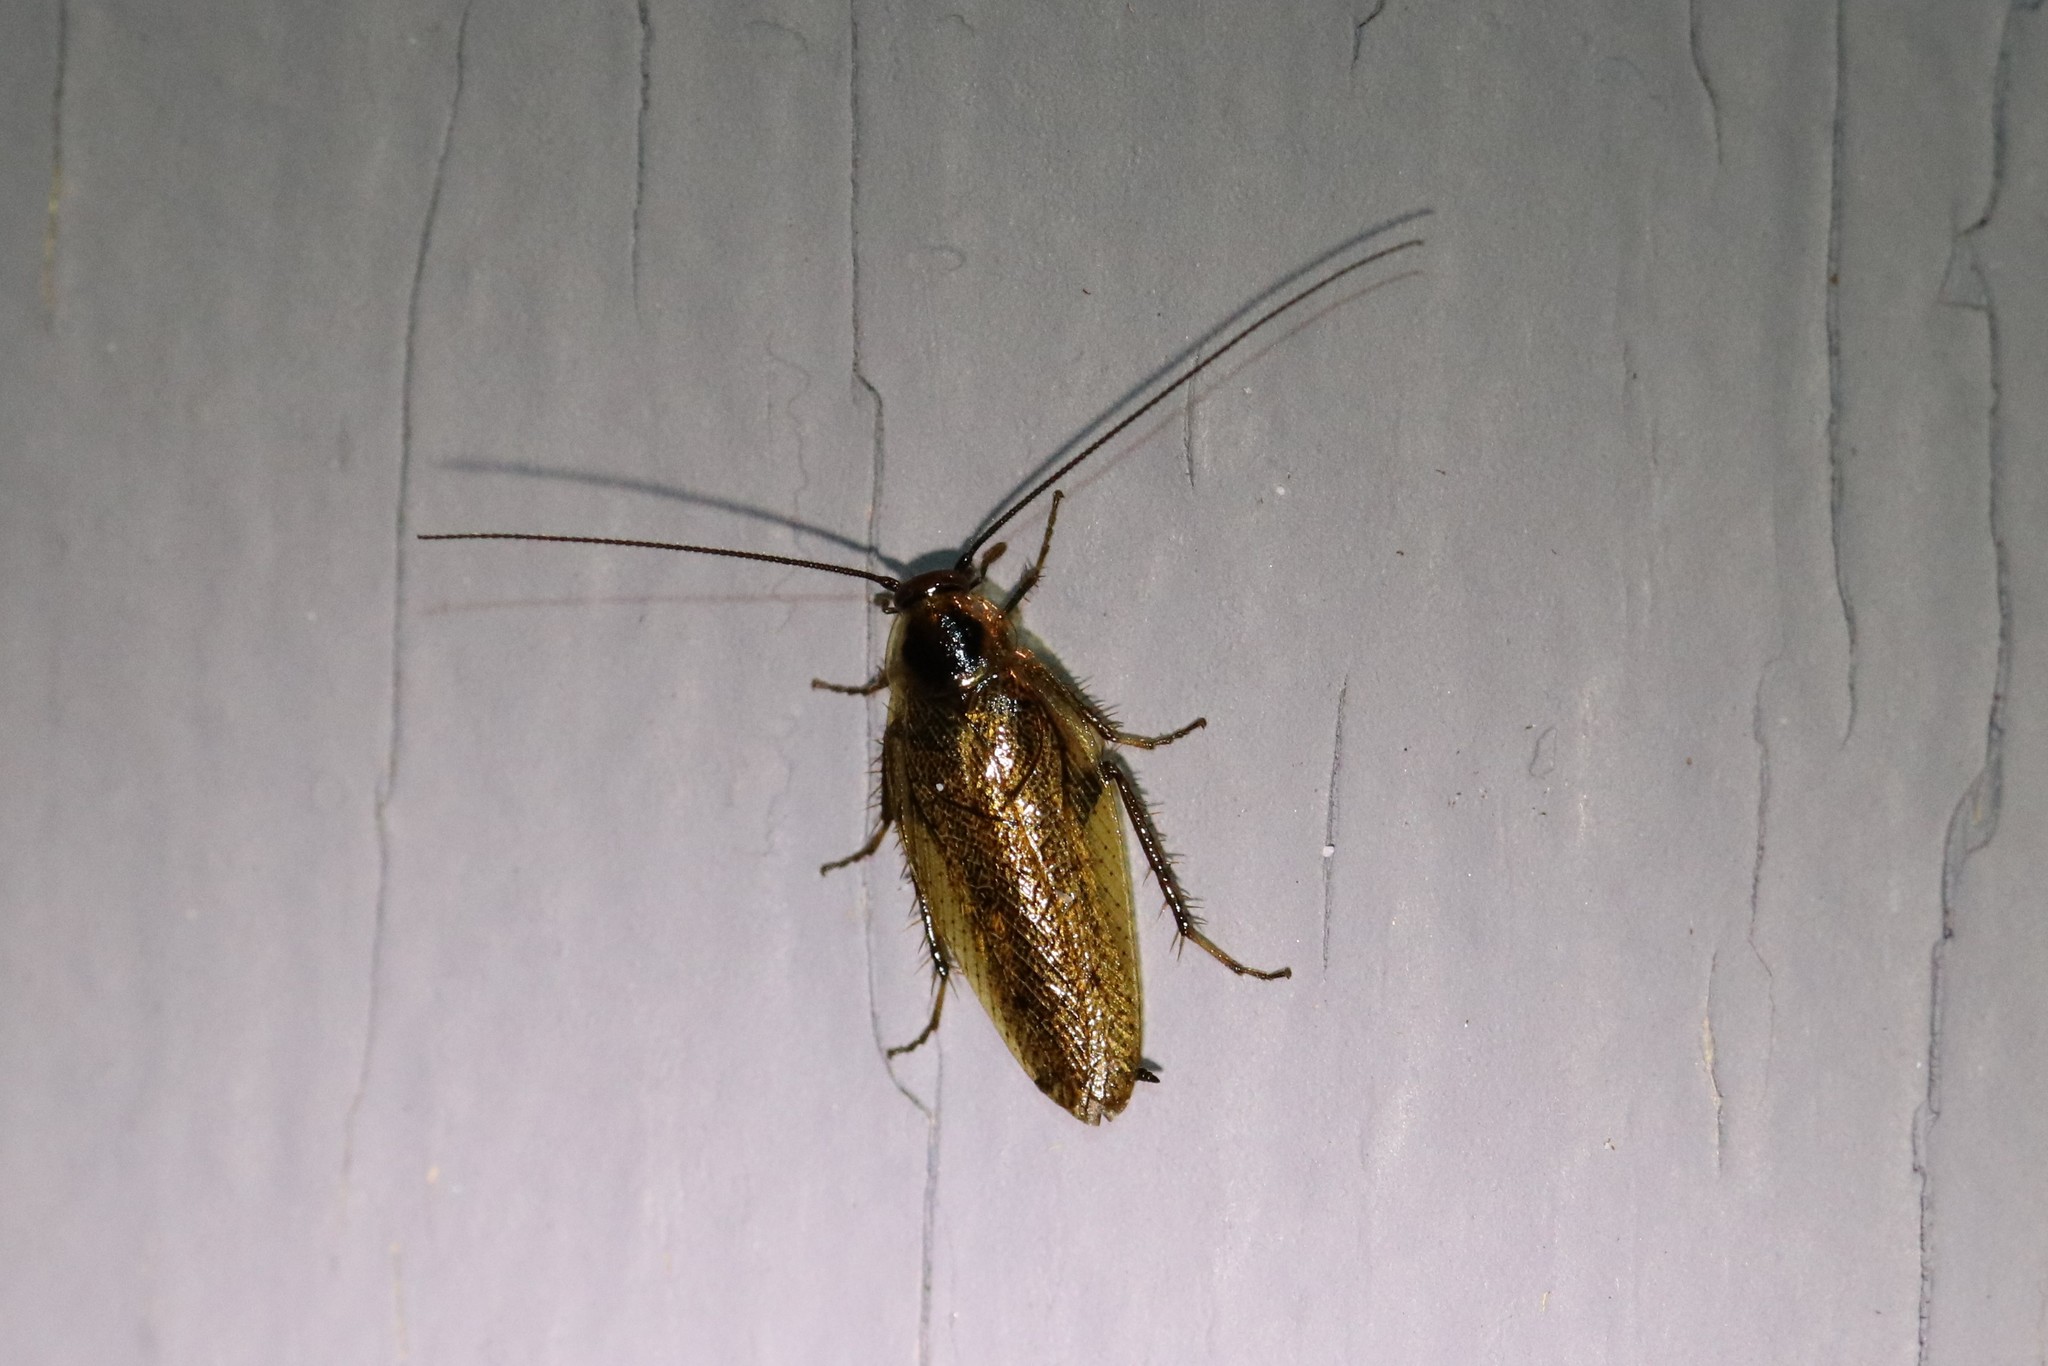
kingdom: Animalia
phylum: Arthropoda
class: Insecta
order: Blattodea
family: Ectobiidae
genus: Ectobius
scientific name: Ectobius lapponicus
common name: Dusky cockroach
